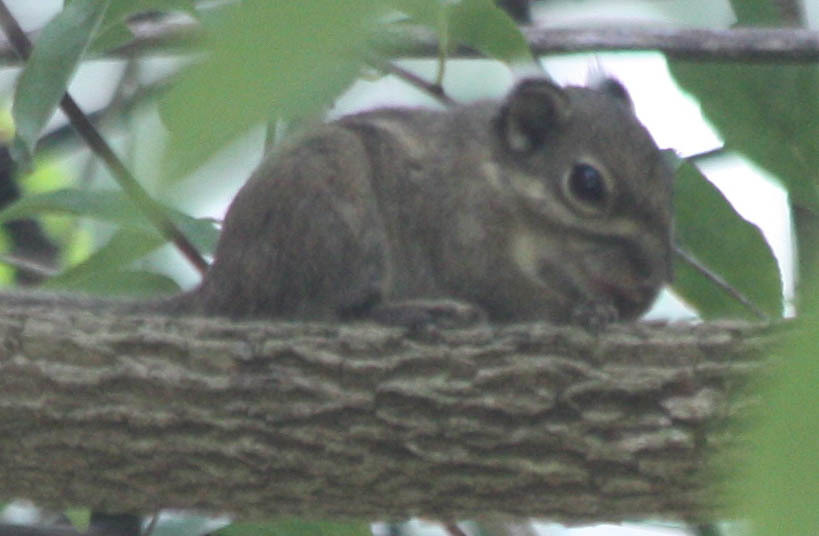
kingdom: Animalia
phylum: Chordata
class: Mammalia
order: Rodentia
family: Sciuridae
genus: Tamiops
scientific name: Tamiops maritimus
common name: Maritime striped squirrel
